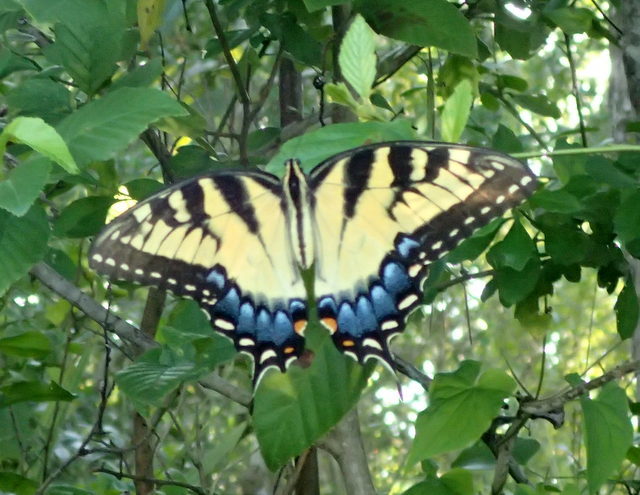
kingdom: Animalia
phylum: Arthropoda
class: Insecta
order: Lepidoptera
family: Papilionidae
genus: Papilio
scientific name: Papilio glaucus
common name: Tiger swallowtail
